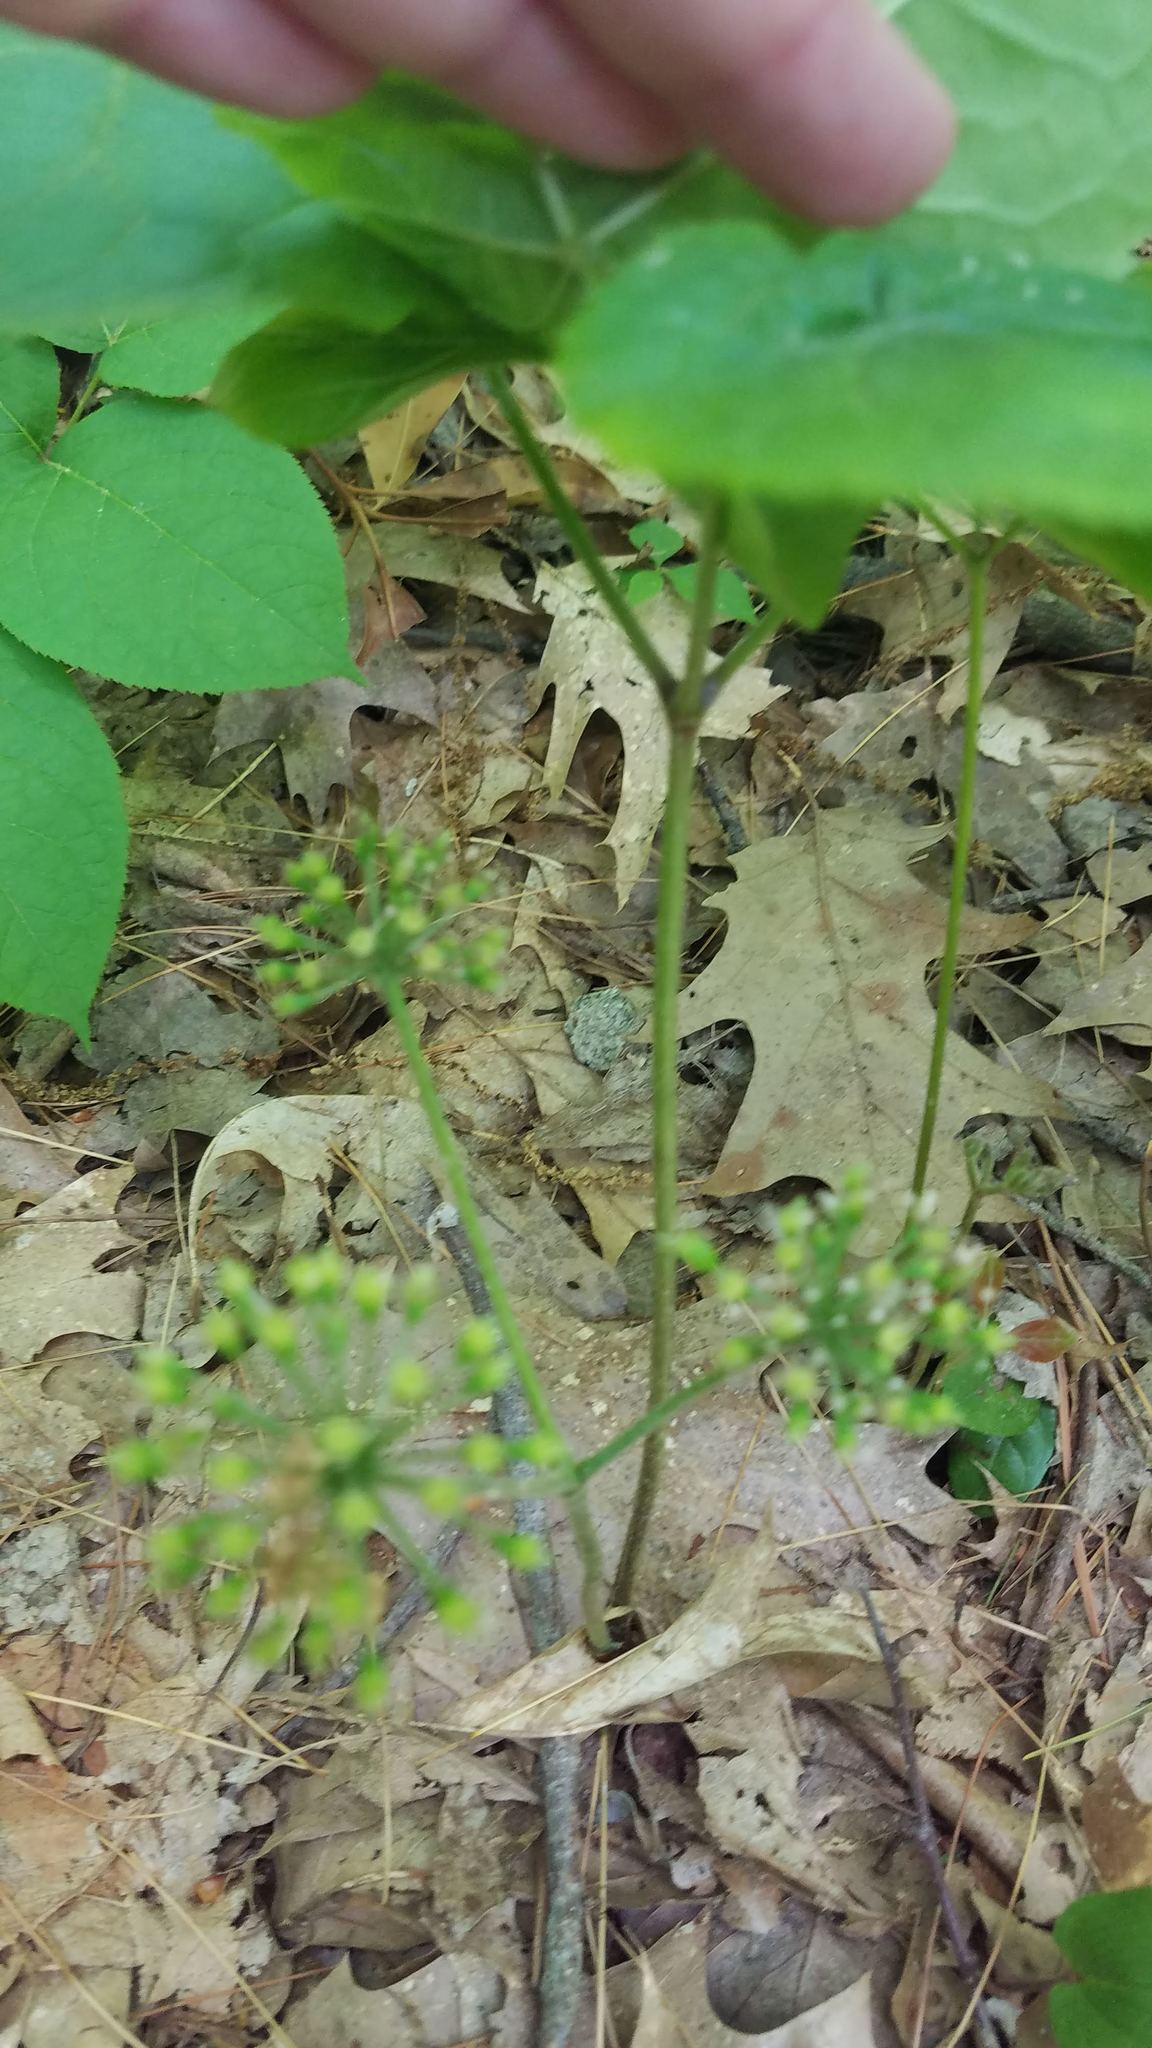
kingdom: Plantae
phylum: Tracheophyta
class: Magnoliopsida
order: Apiales
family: Araliaceae
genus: Aralia
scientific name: Aralia nudicaulis
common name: Wild sarsaparilla
